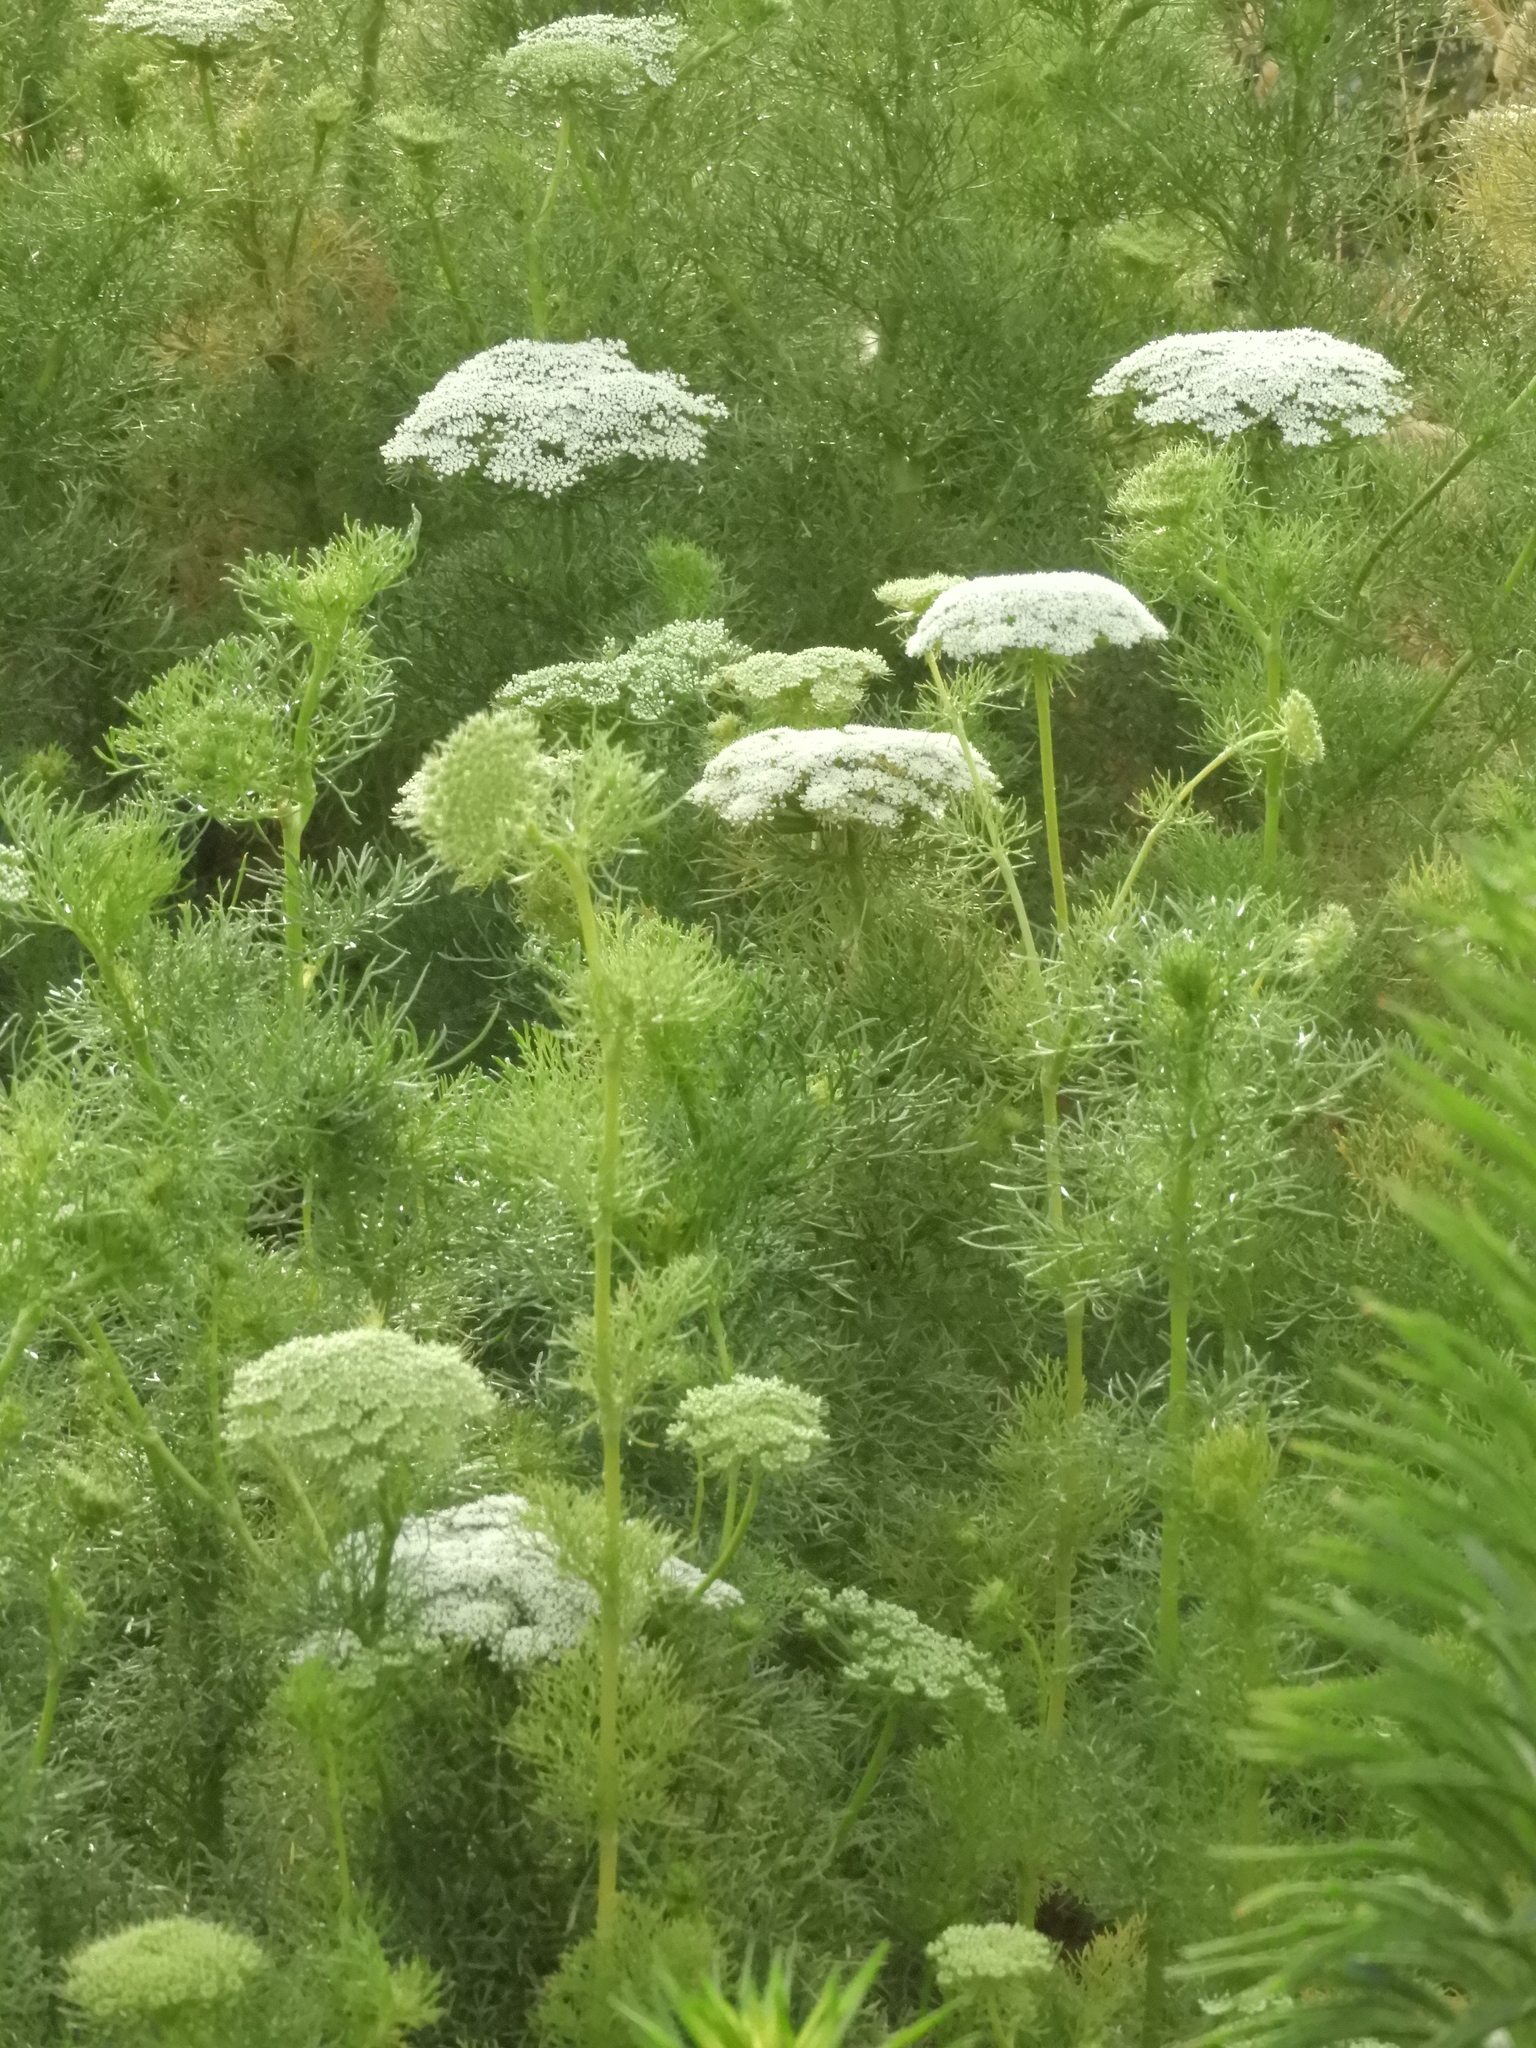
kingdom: Plantae
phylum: Tracheophyta
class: Magnoliopsida
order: Apiales
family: Apiaceae
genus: Visnaga
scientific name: Visnaga daucoides
